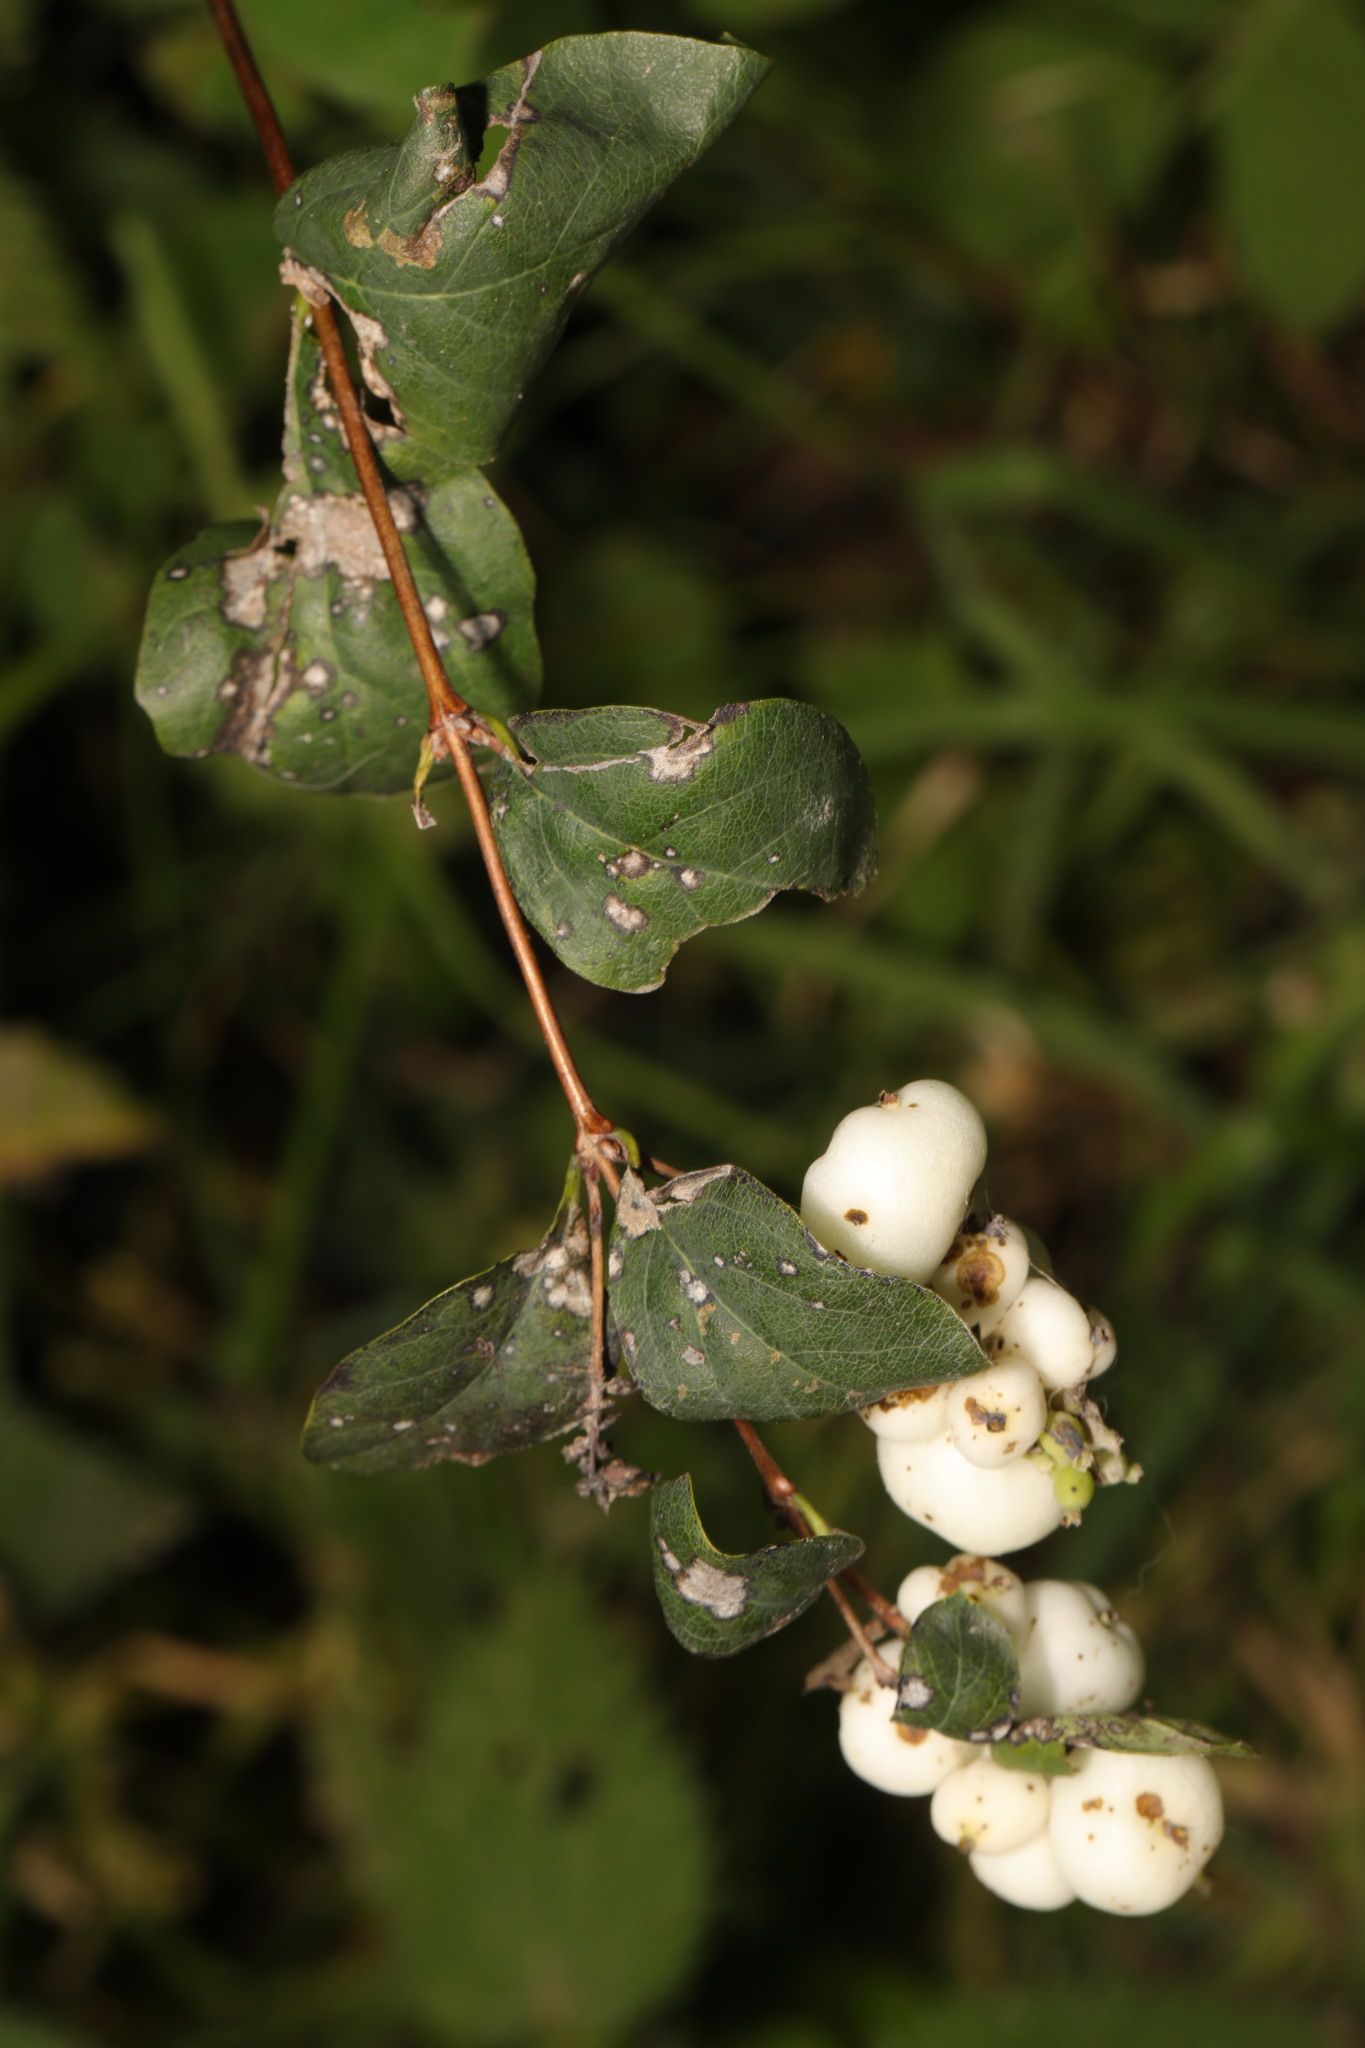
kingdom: Plantae
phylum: Tracheophyta
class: Magnoliopsida
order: Dipsacales
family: Caprifoliaceae
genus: Symphoricarpos
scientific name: Symphoricarpos albus
